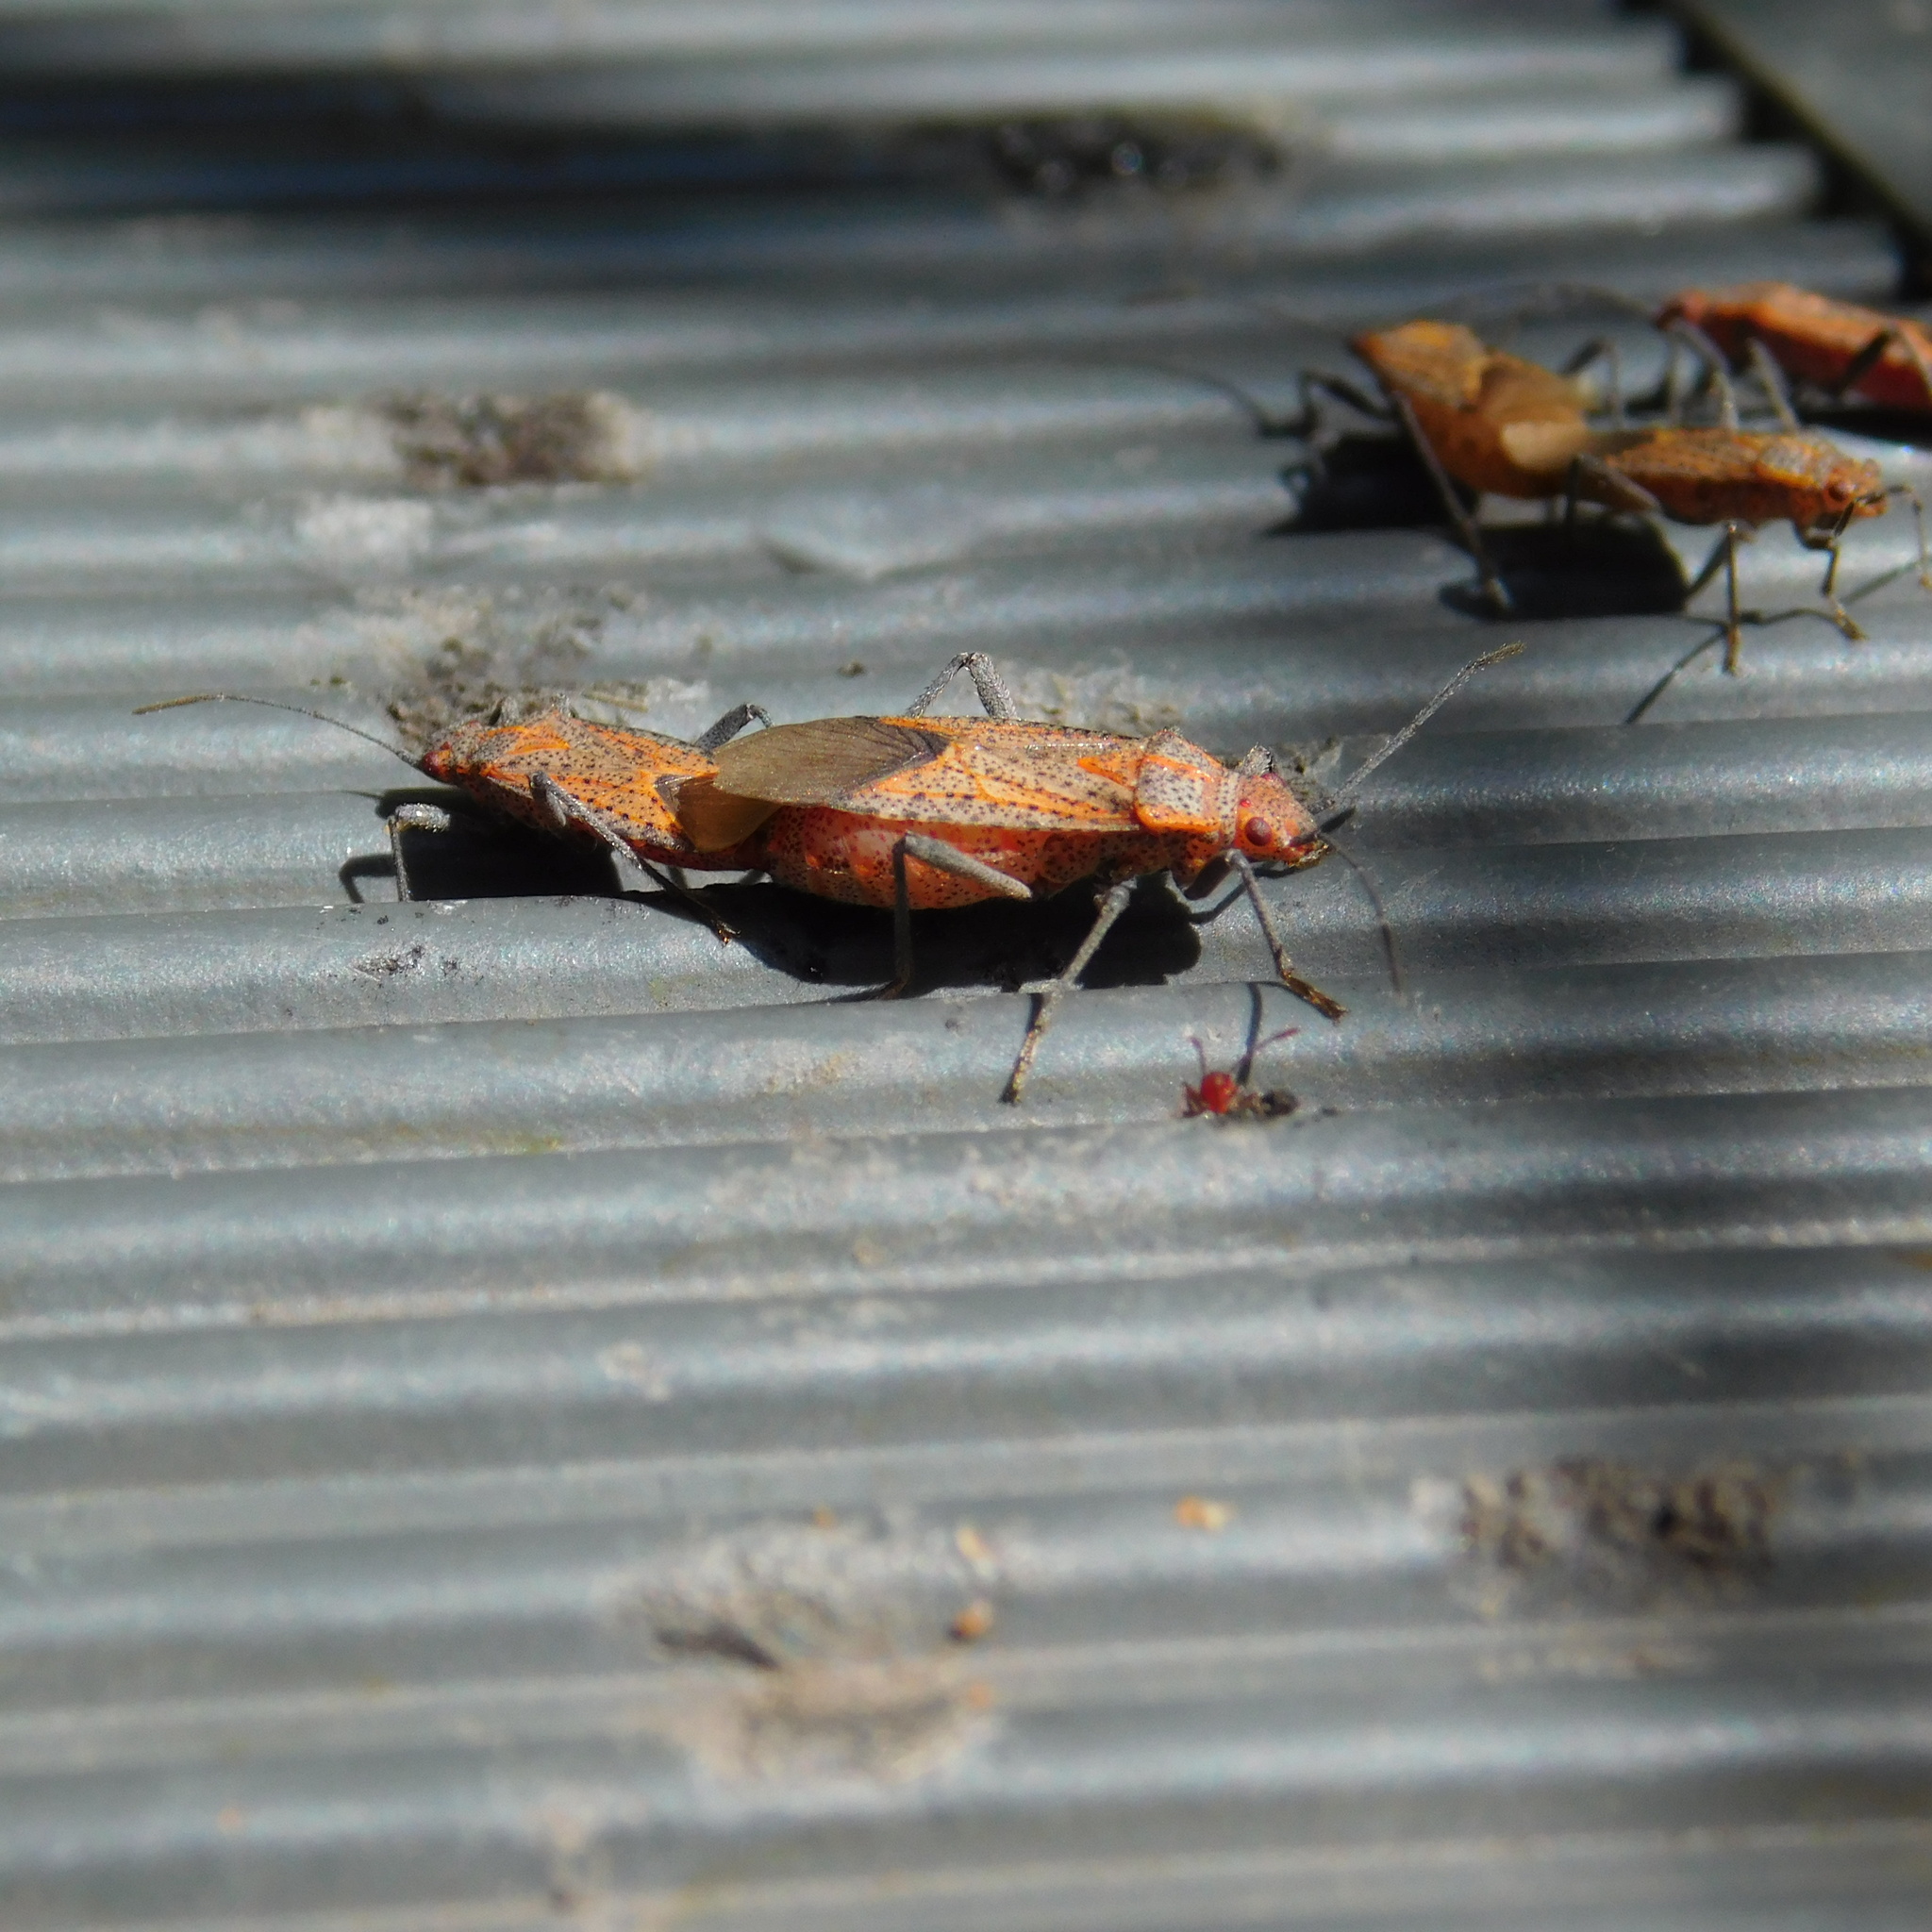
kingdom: Animalia
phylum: Arthropoda
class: Insecta
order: Hemiptera
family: Rhopalidae
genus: Jadera
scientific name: Jadera choprai
